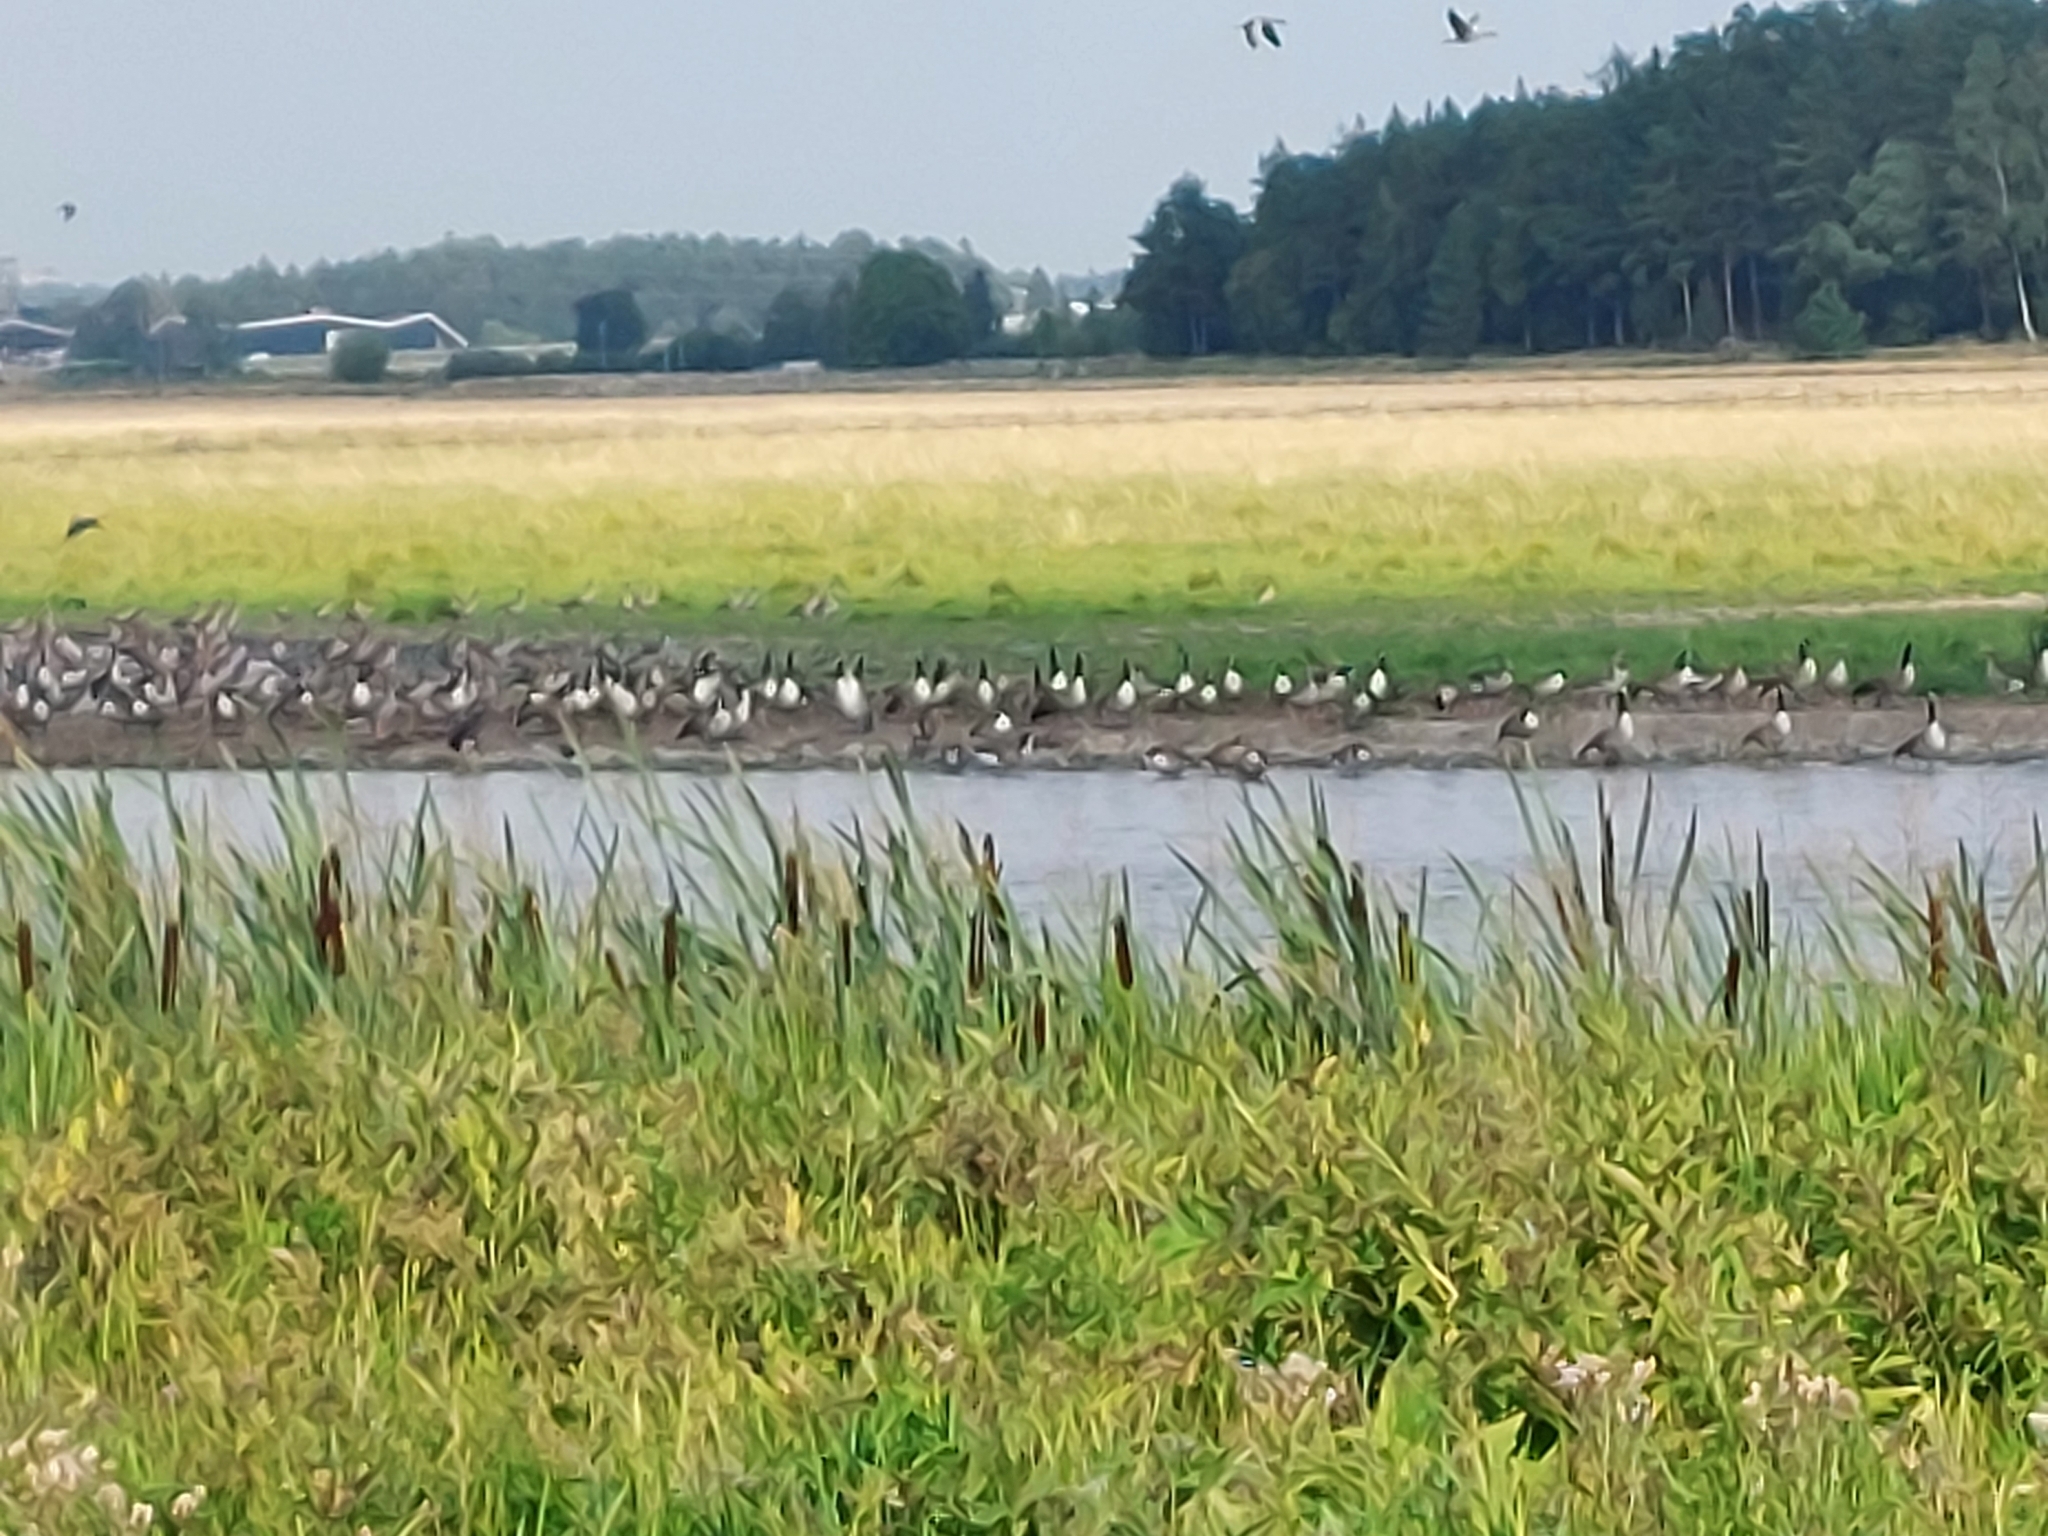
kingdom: Animalia
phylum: Chordata
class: Aves
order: Anseriformes
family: Anatidae
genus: Branta
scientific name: Branta canadensis
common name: Canada goose
